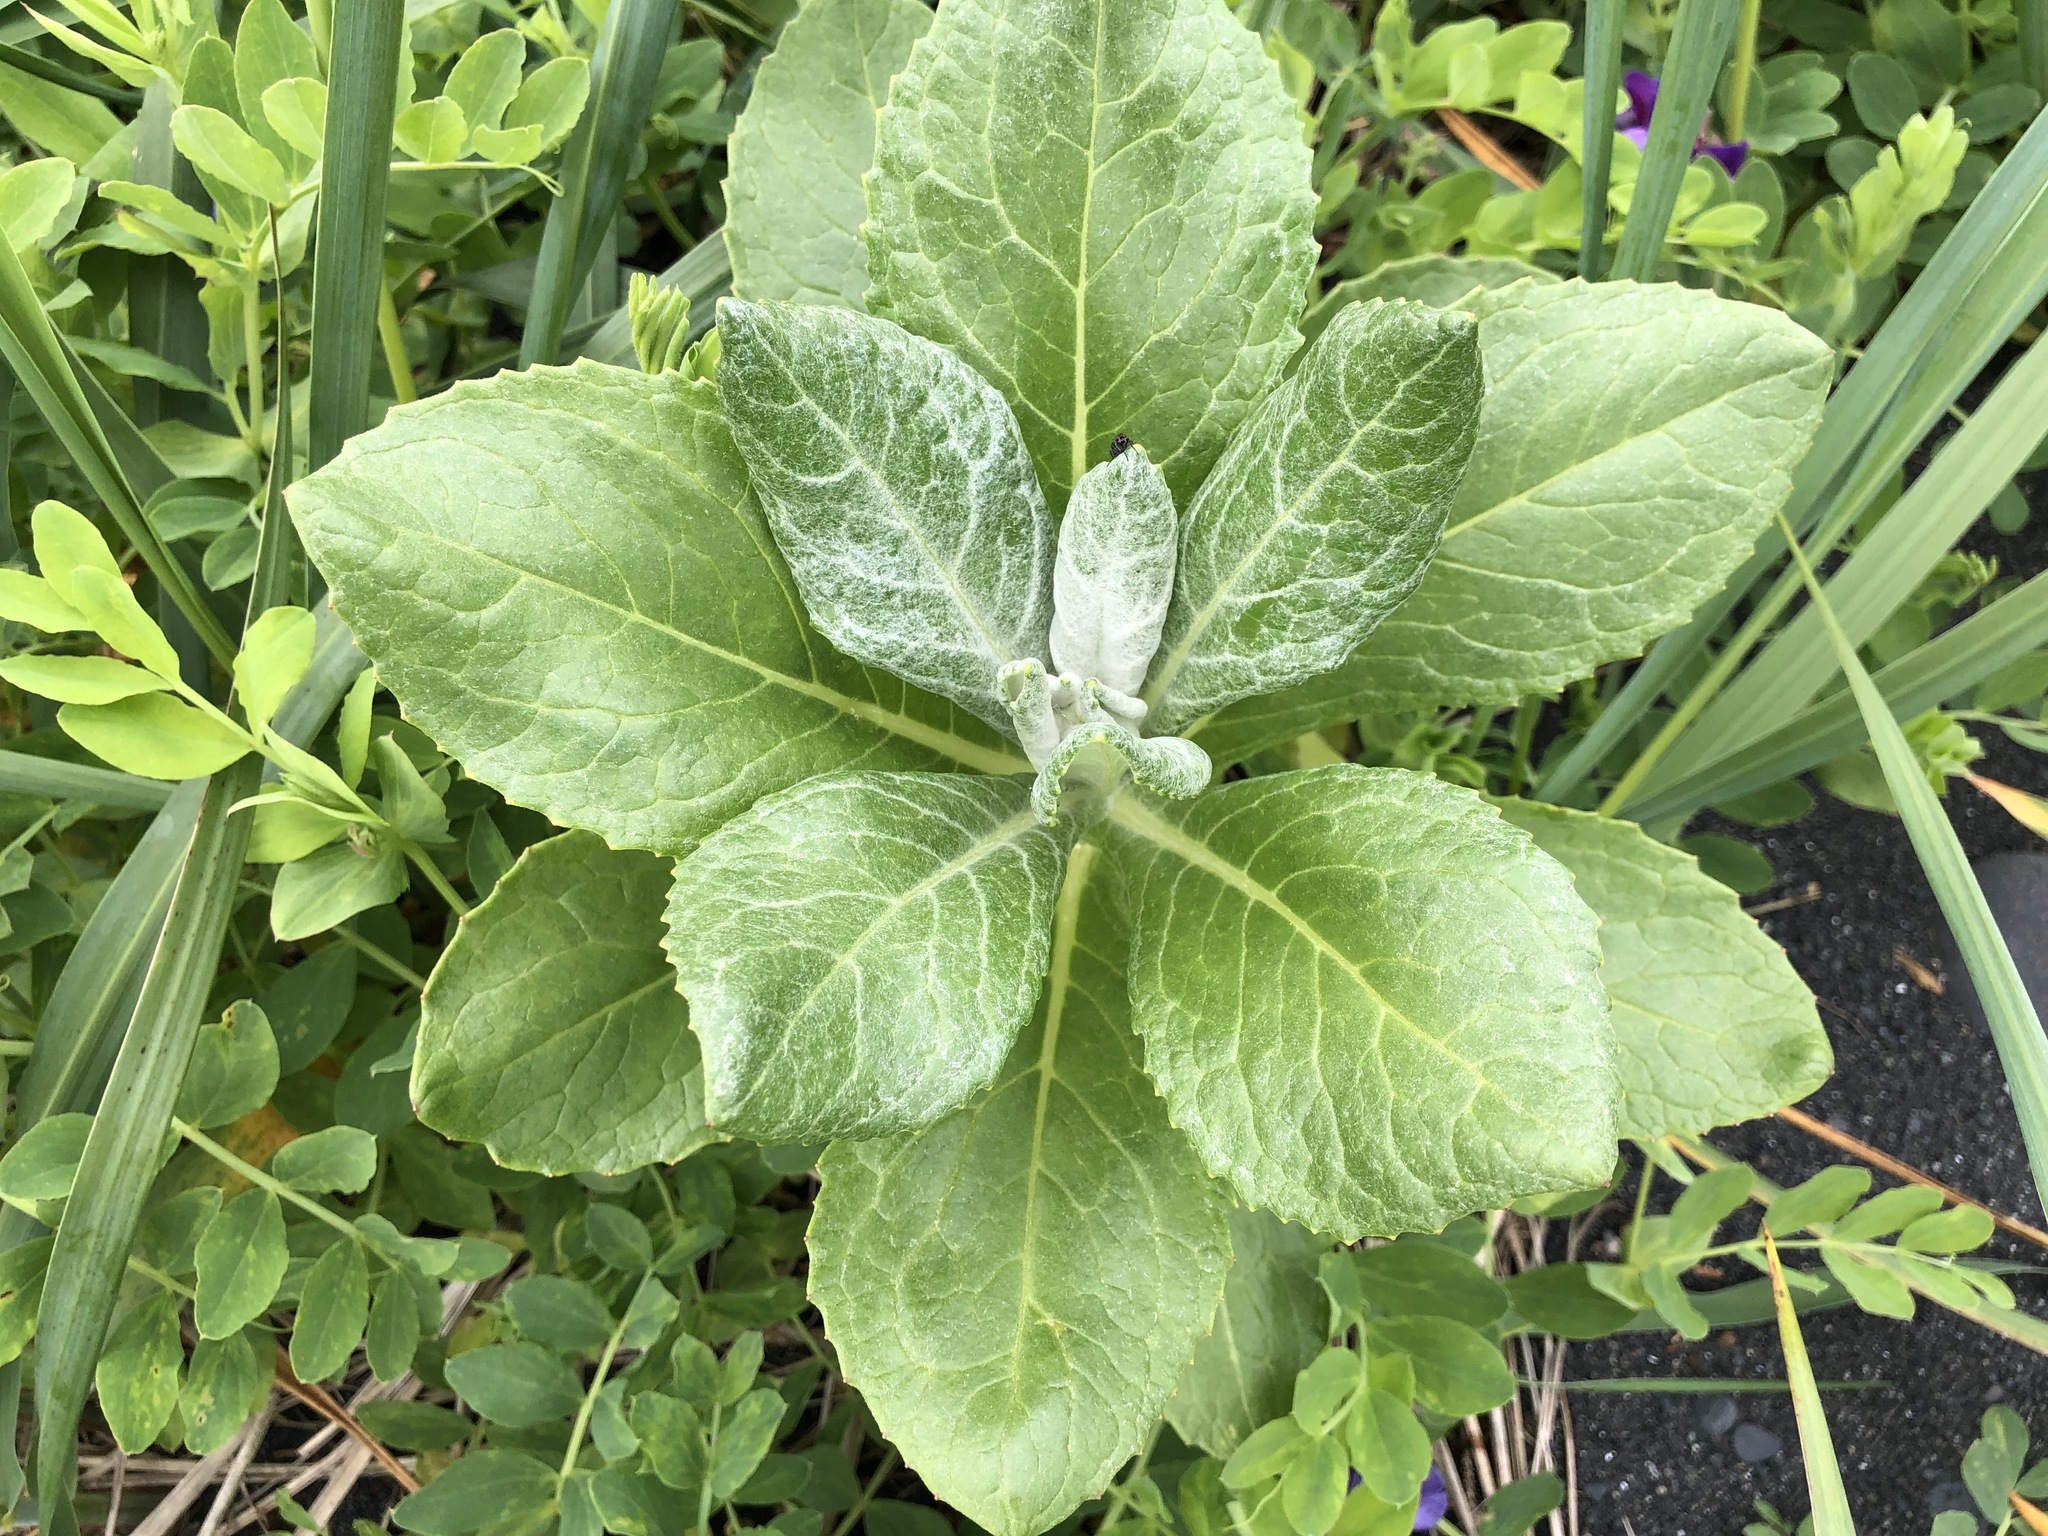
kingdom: Plantae
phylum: Tracheophyta
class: Magnoliopsida
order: Asterales
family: Asteraceae
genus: Jacobaea
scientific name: Jacobaea pseudoarnica
